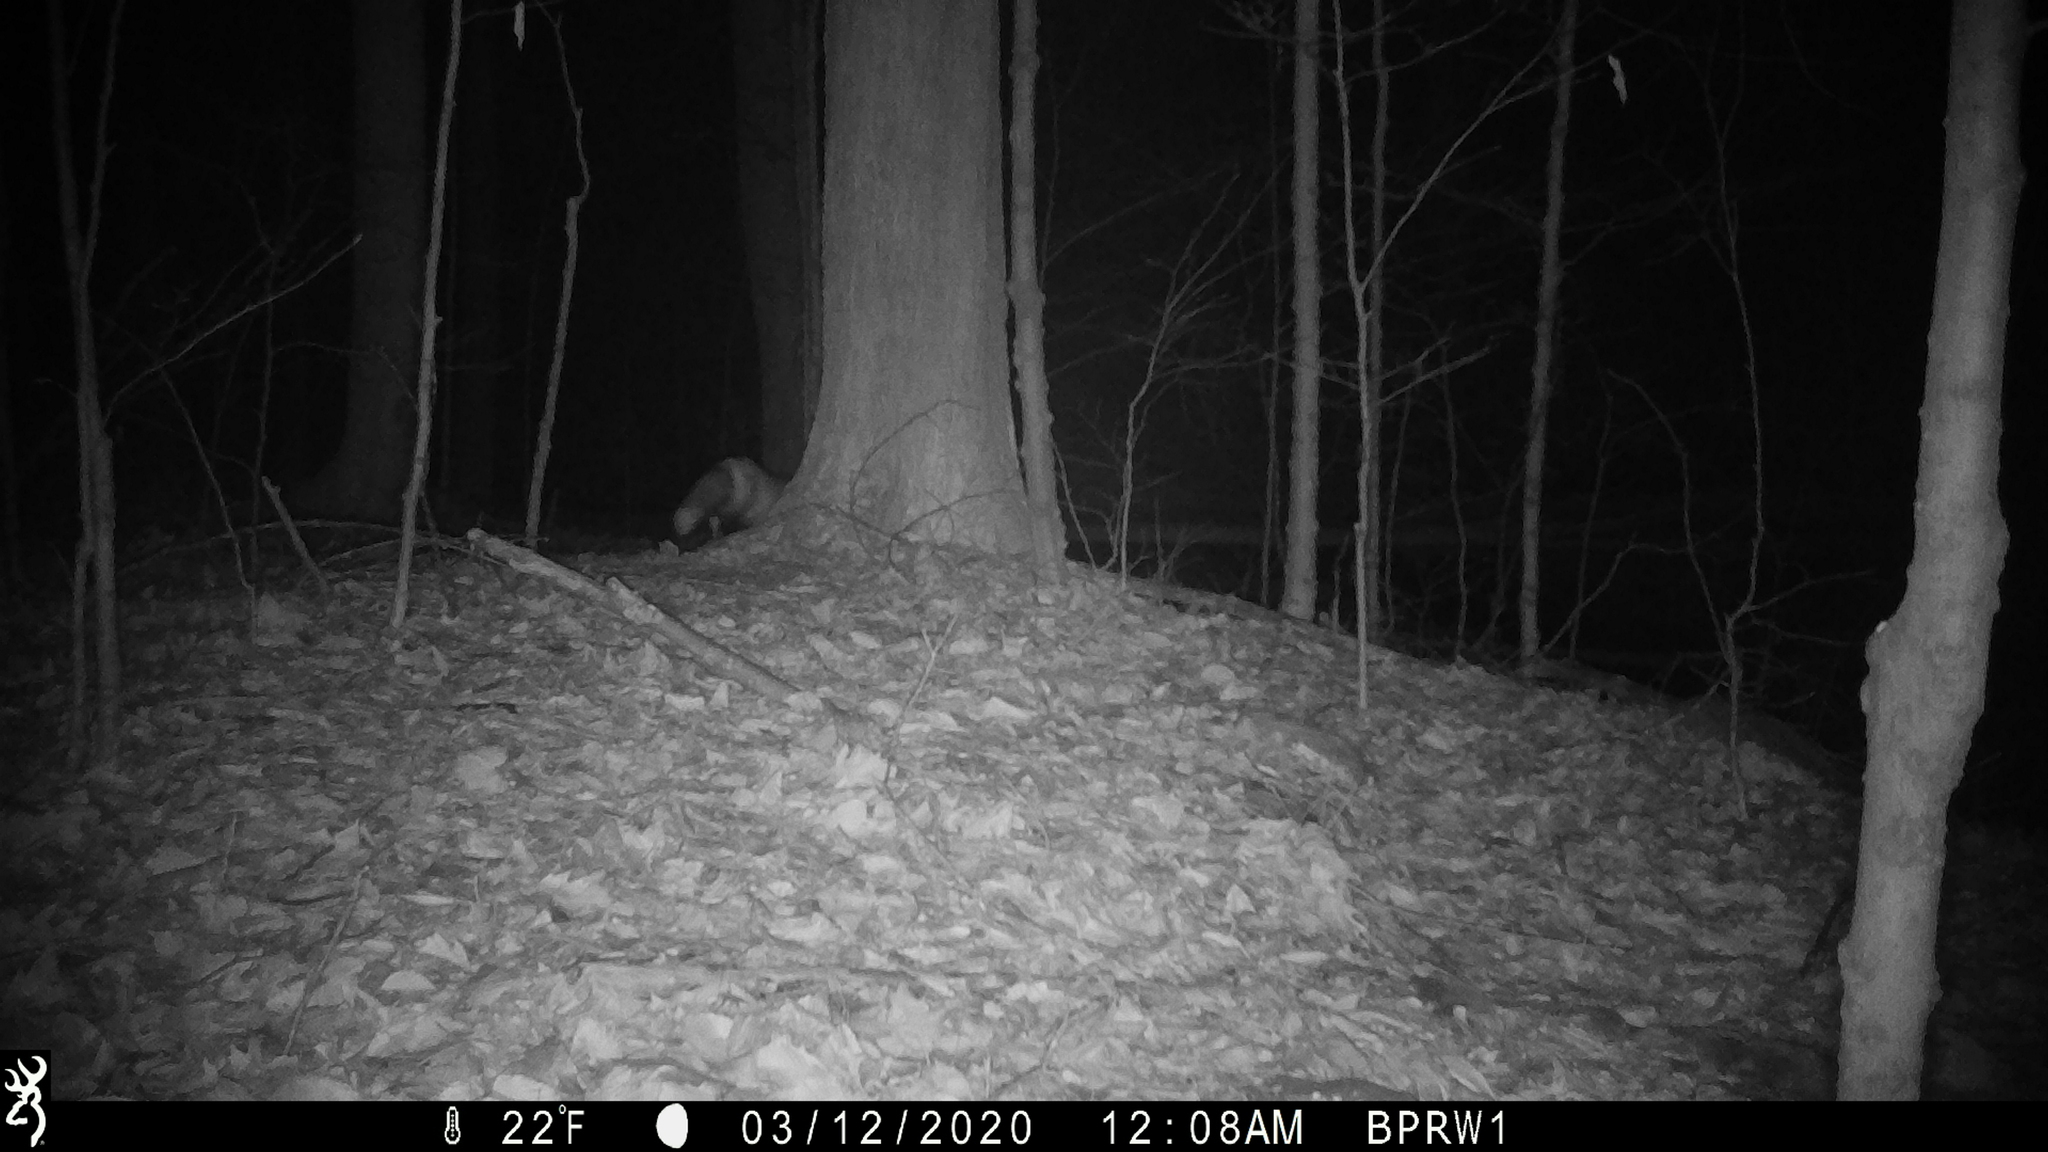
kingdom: Animalia
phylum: Chordata
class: Mammalia
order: Carnivora
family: Canidae
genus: Vulpes
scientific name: Vulpes vulpes
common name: Red fox
